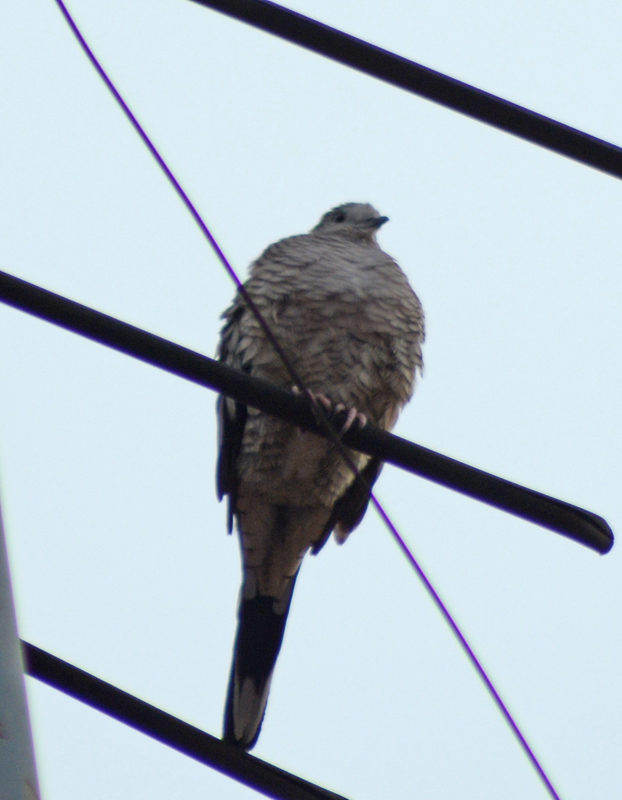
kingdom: Animalia
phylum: Chordata
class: Aves
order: Columbiformes
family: Columbidae
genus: Columbina
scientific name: Columbina inca
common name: Inca dove
